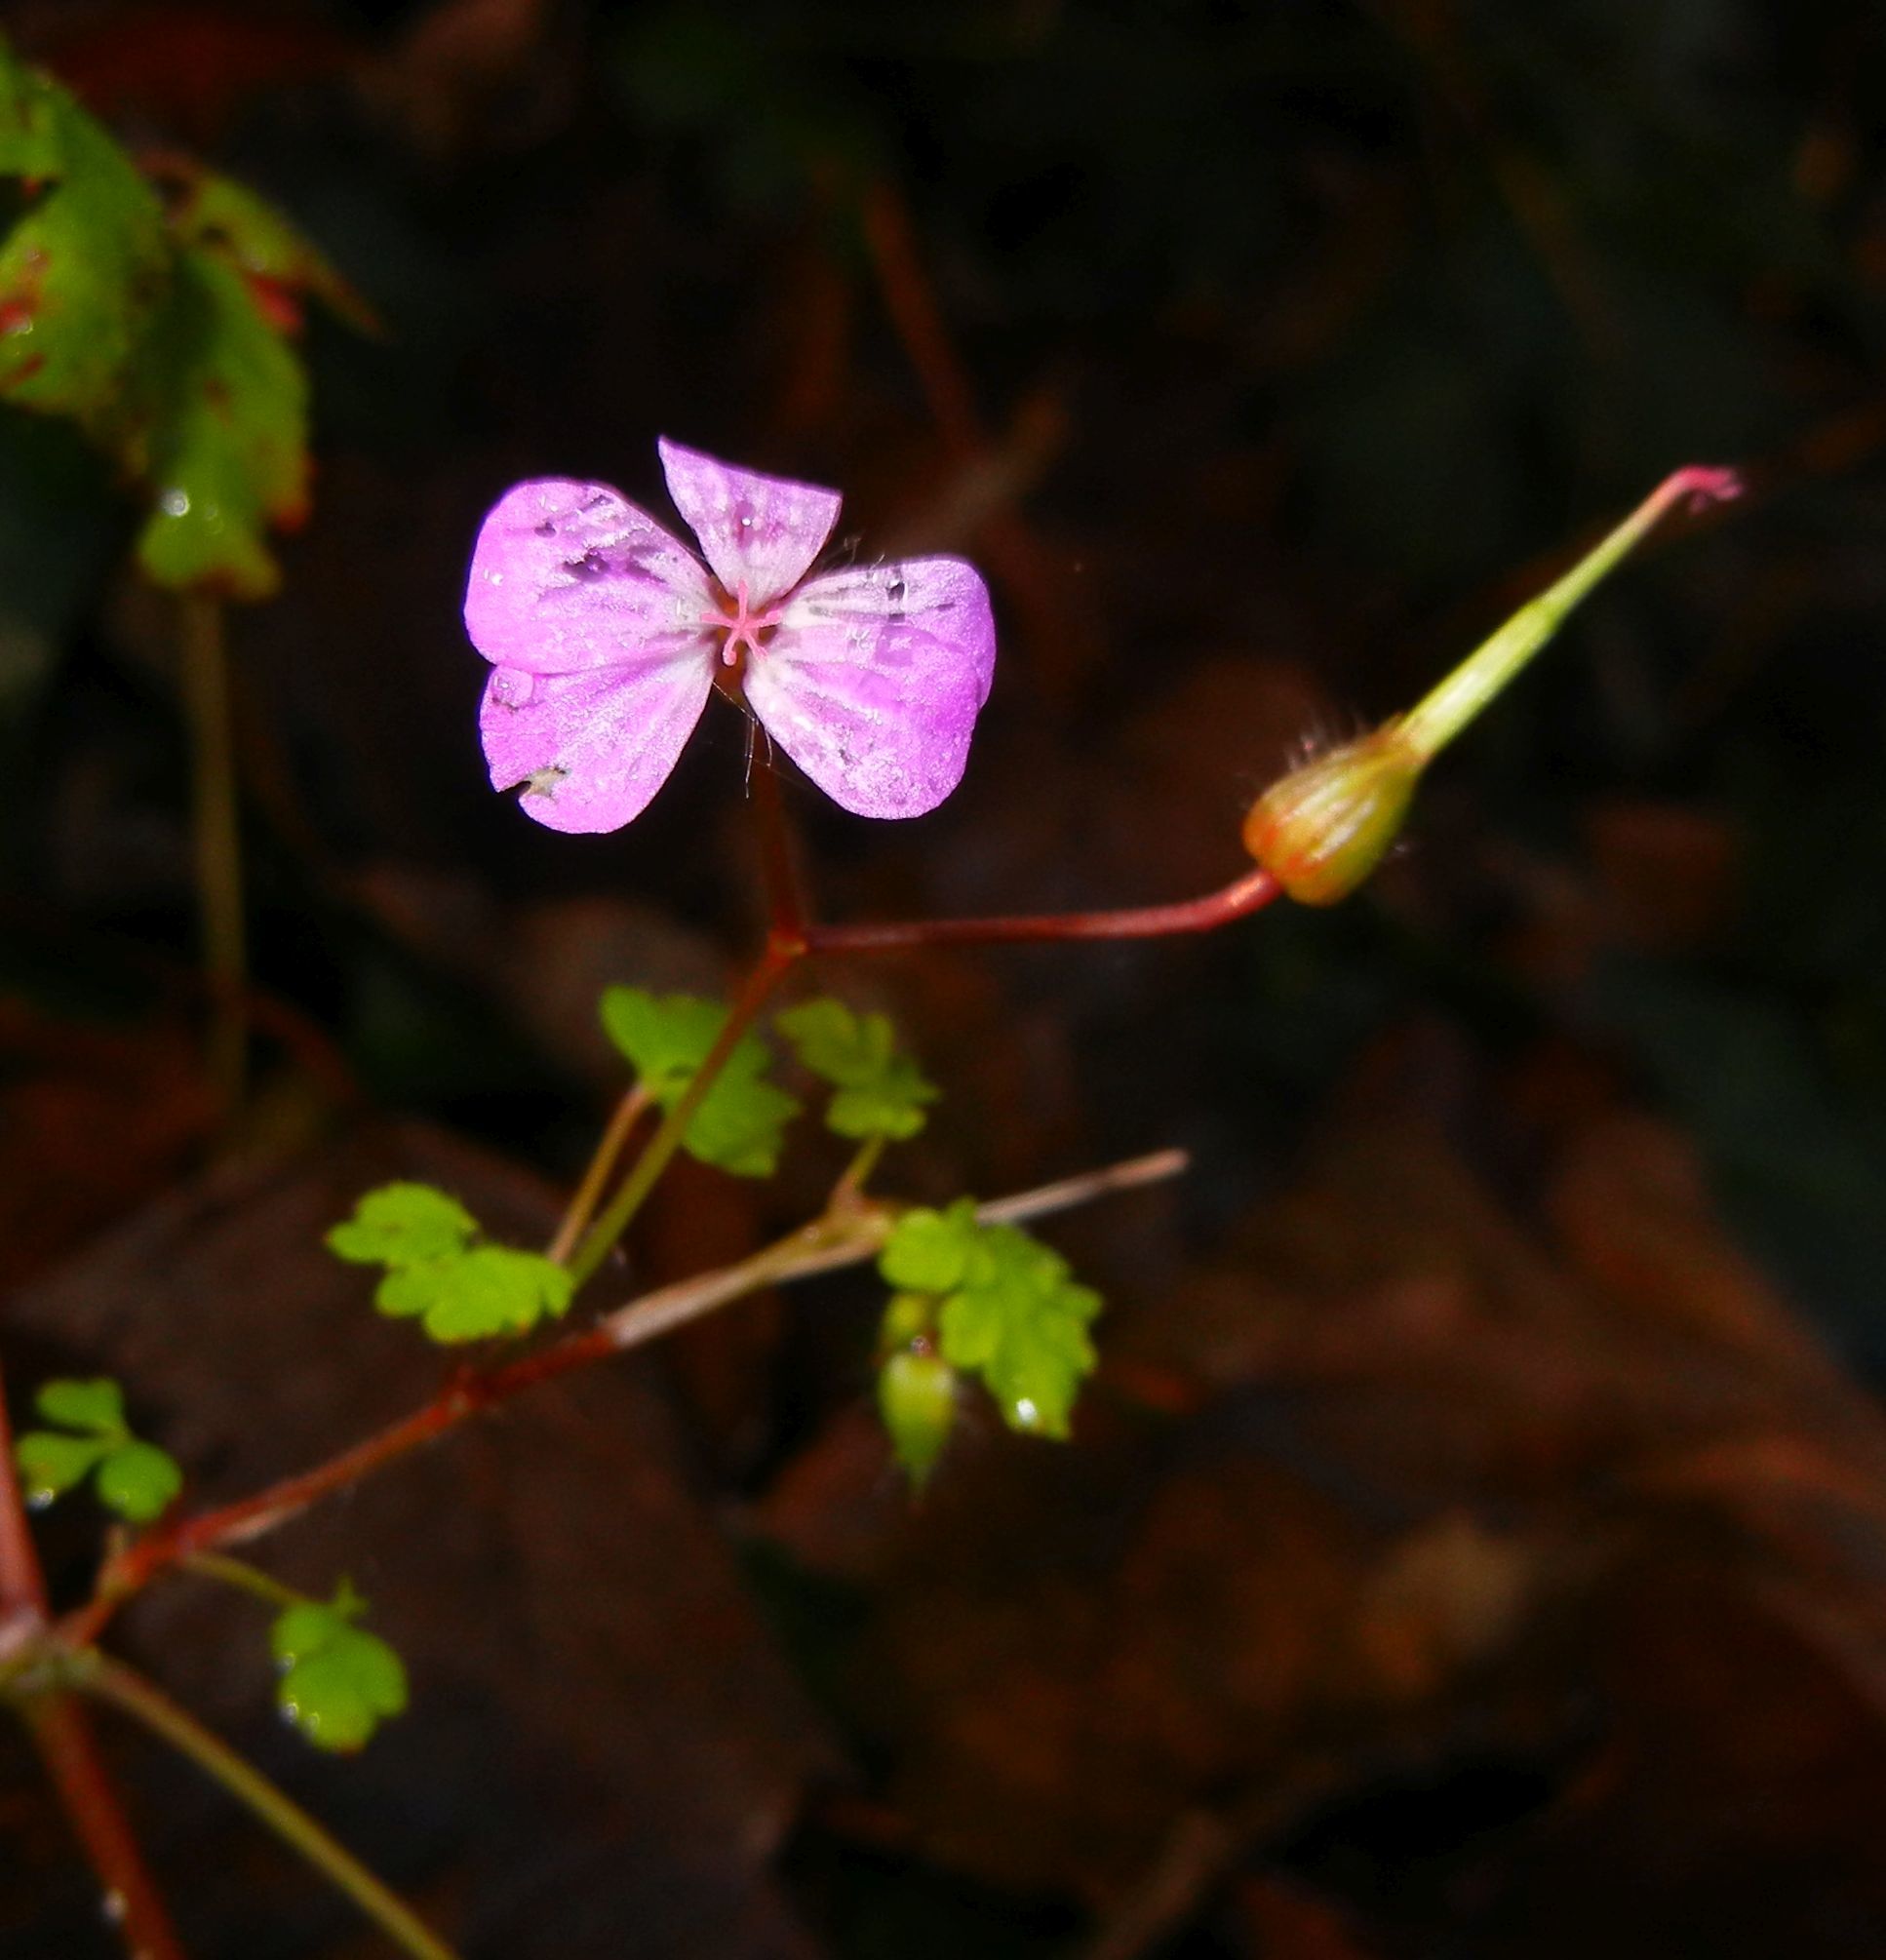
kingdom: Plantae
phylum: Tracheophyta
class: Magnoliopsida
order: Geraniales
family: Geraniaceae
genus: Geranium
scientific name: Geranium robertianum
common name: Herb-robert
